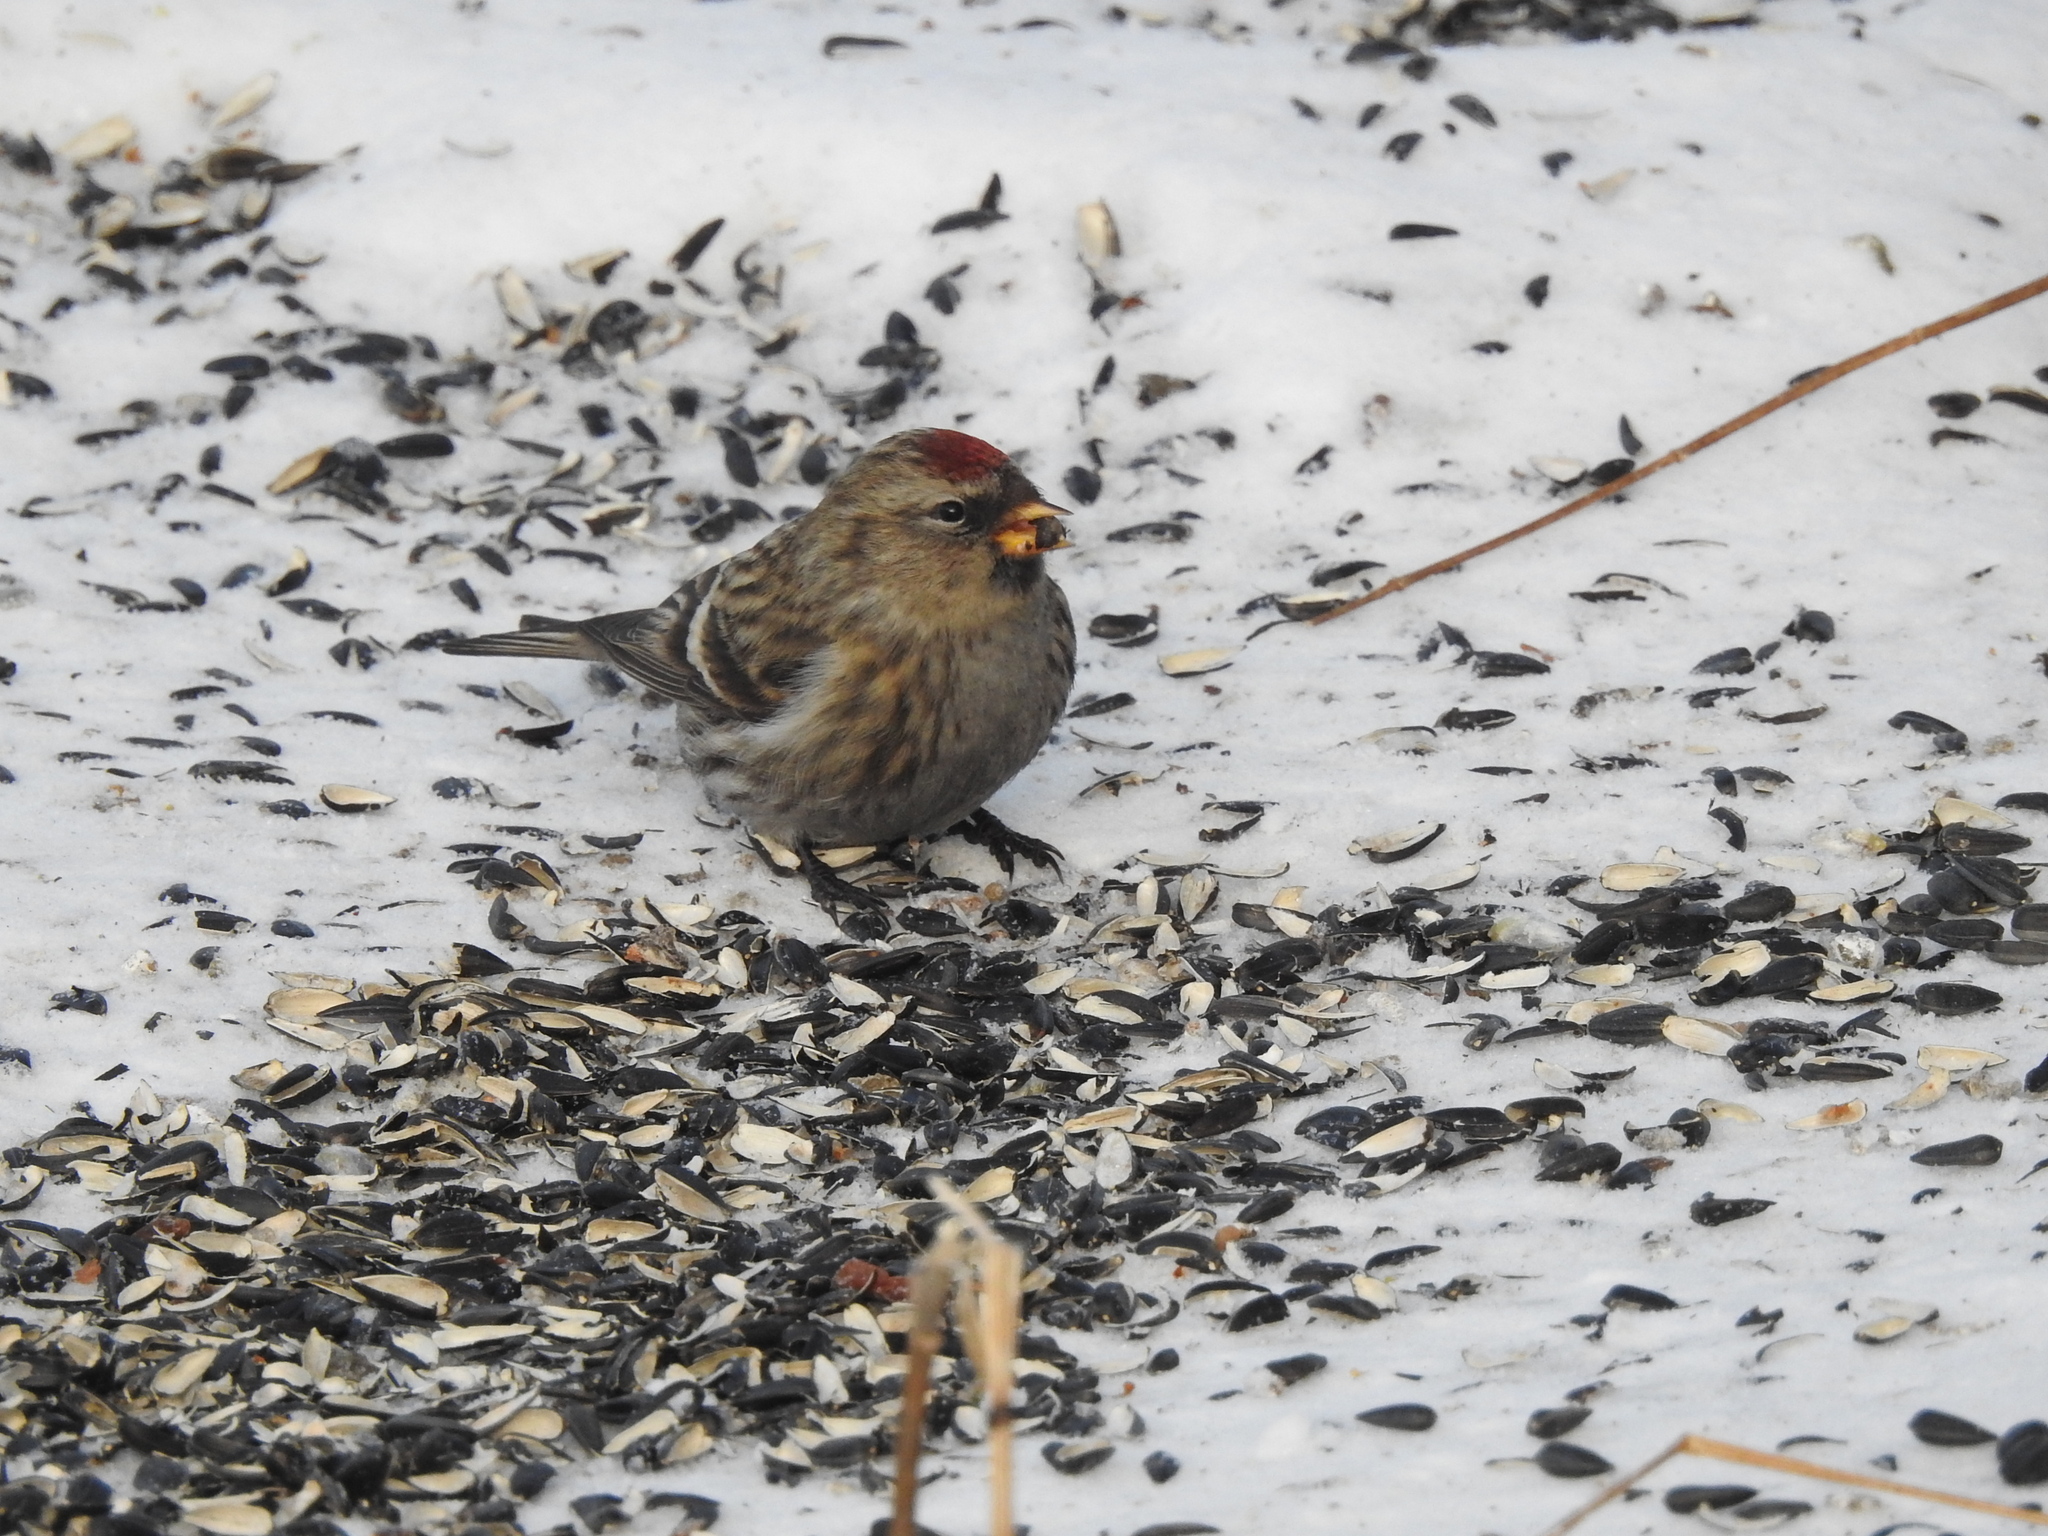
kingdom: Animalia
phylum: Chordata
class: Aves
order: Passeriformes
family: Fringillidae
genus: Acanthis
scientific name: Acanthis flammea
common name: Common redpoll
